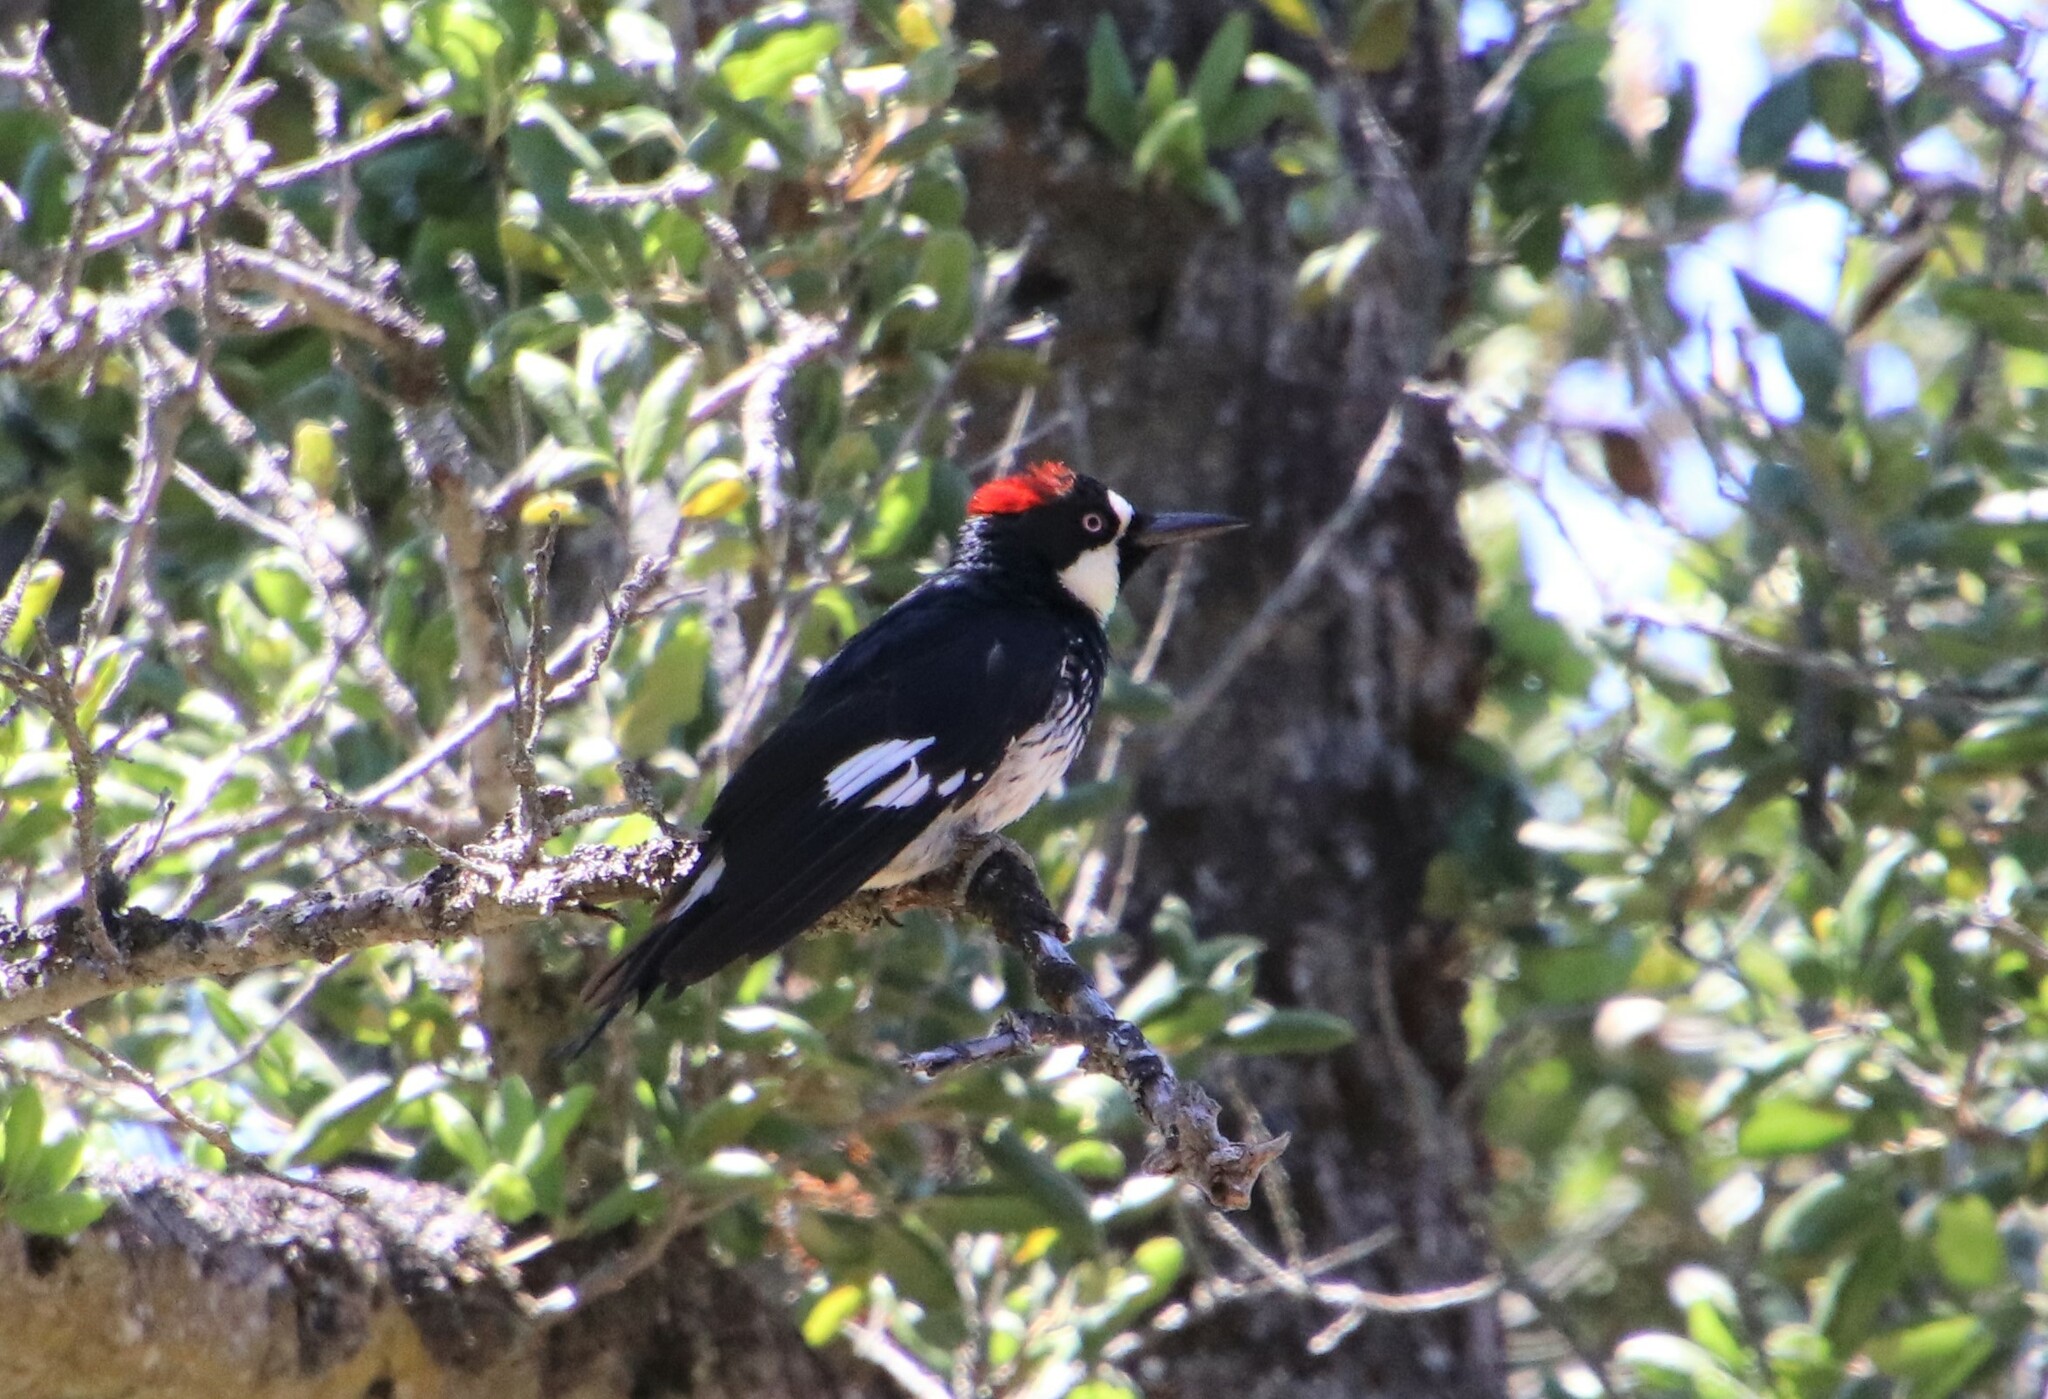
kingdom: Animalia
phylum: Chordata
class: Aves
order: Piciformes
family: Picidae
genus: Melanerpes
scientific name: Melanerpes formicivorus
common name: Acorn woodpecker
